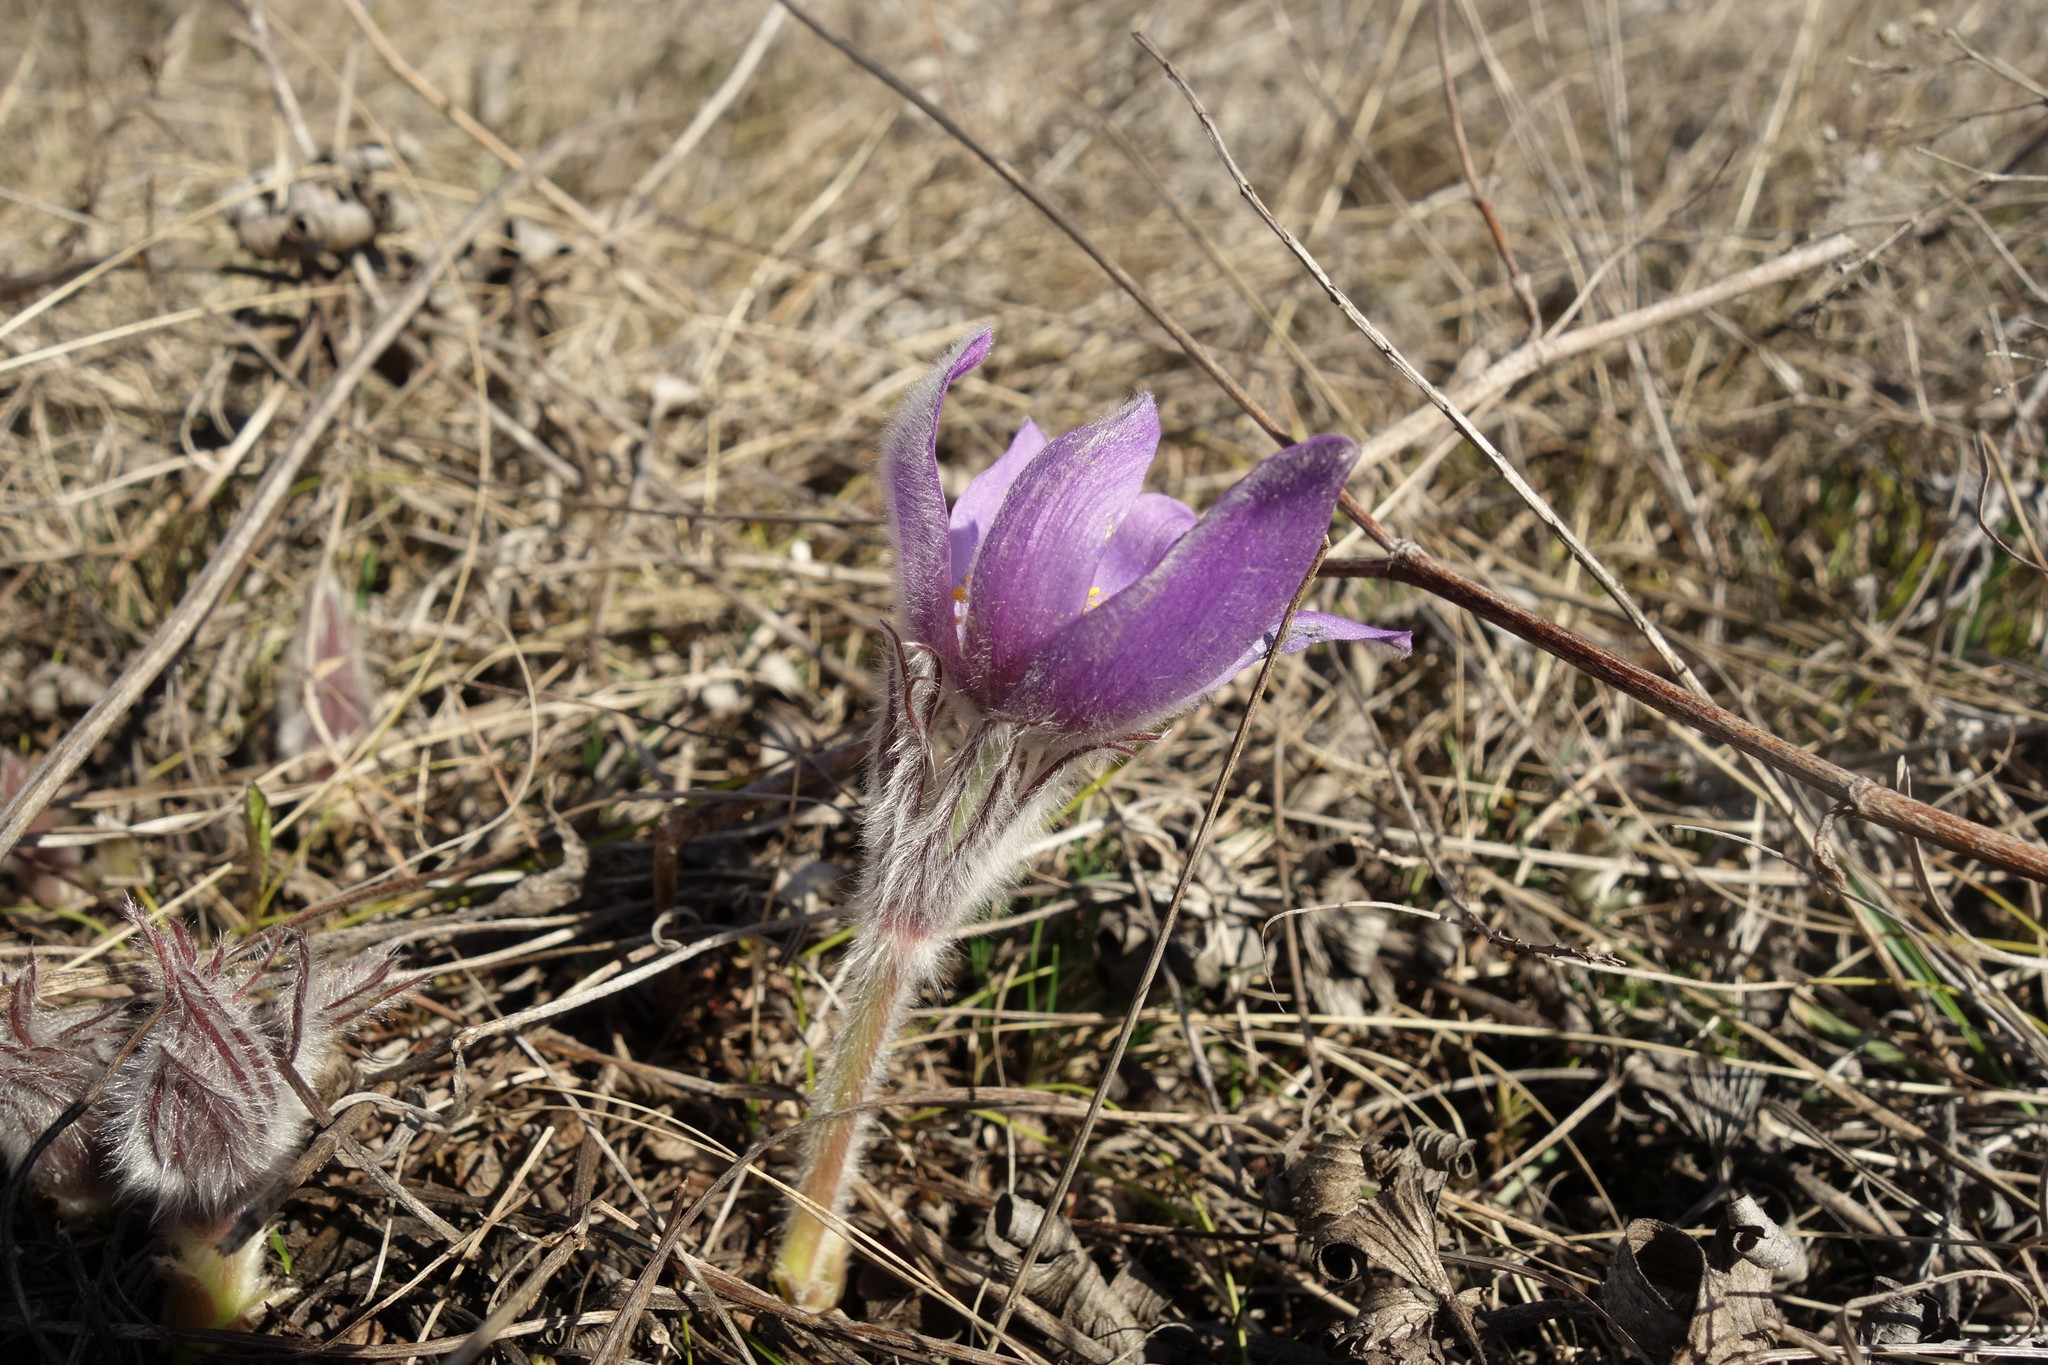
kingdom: Plantae
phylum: Tracheophyta
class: Magnoliopsida
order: Ranunculales
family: Ranunculaceae
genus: Pulsatilla
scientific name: Pulsatilla patens
